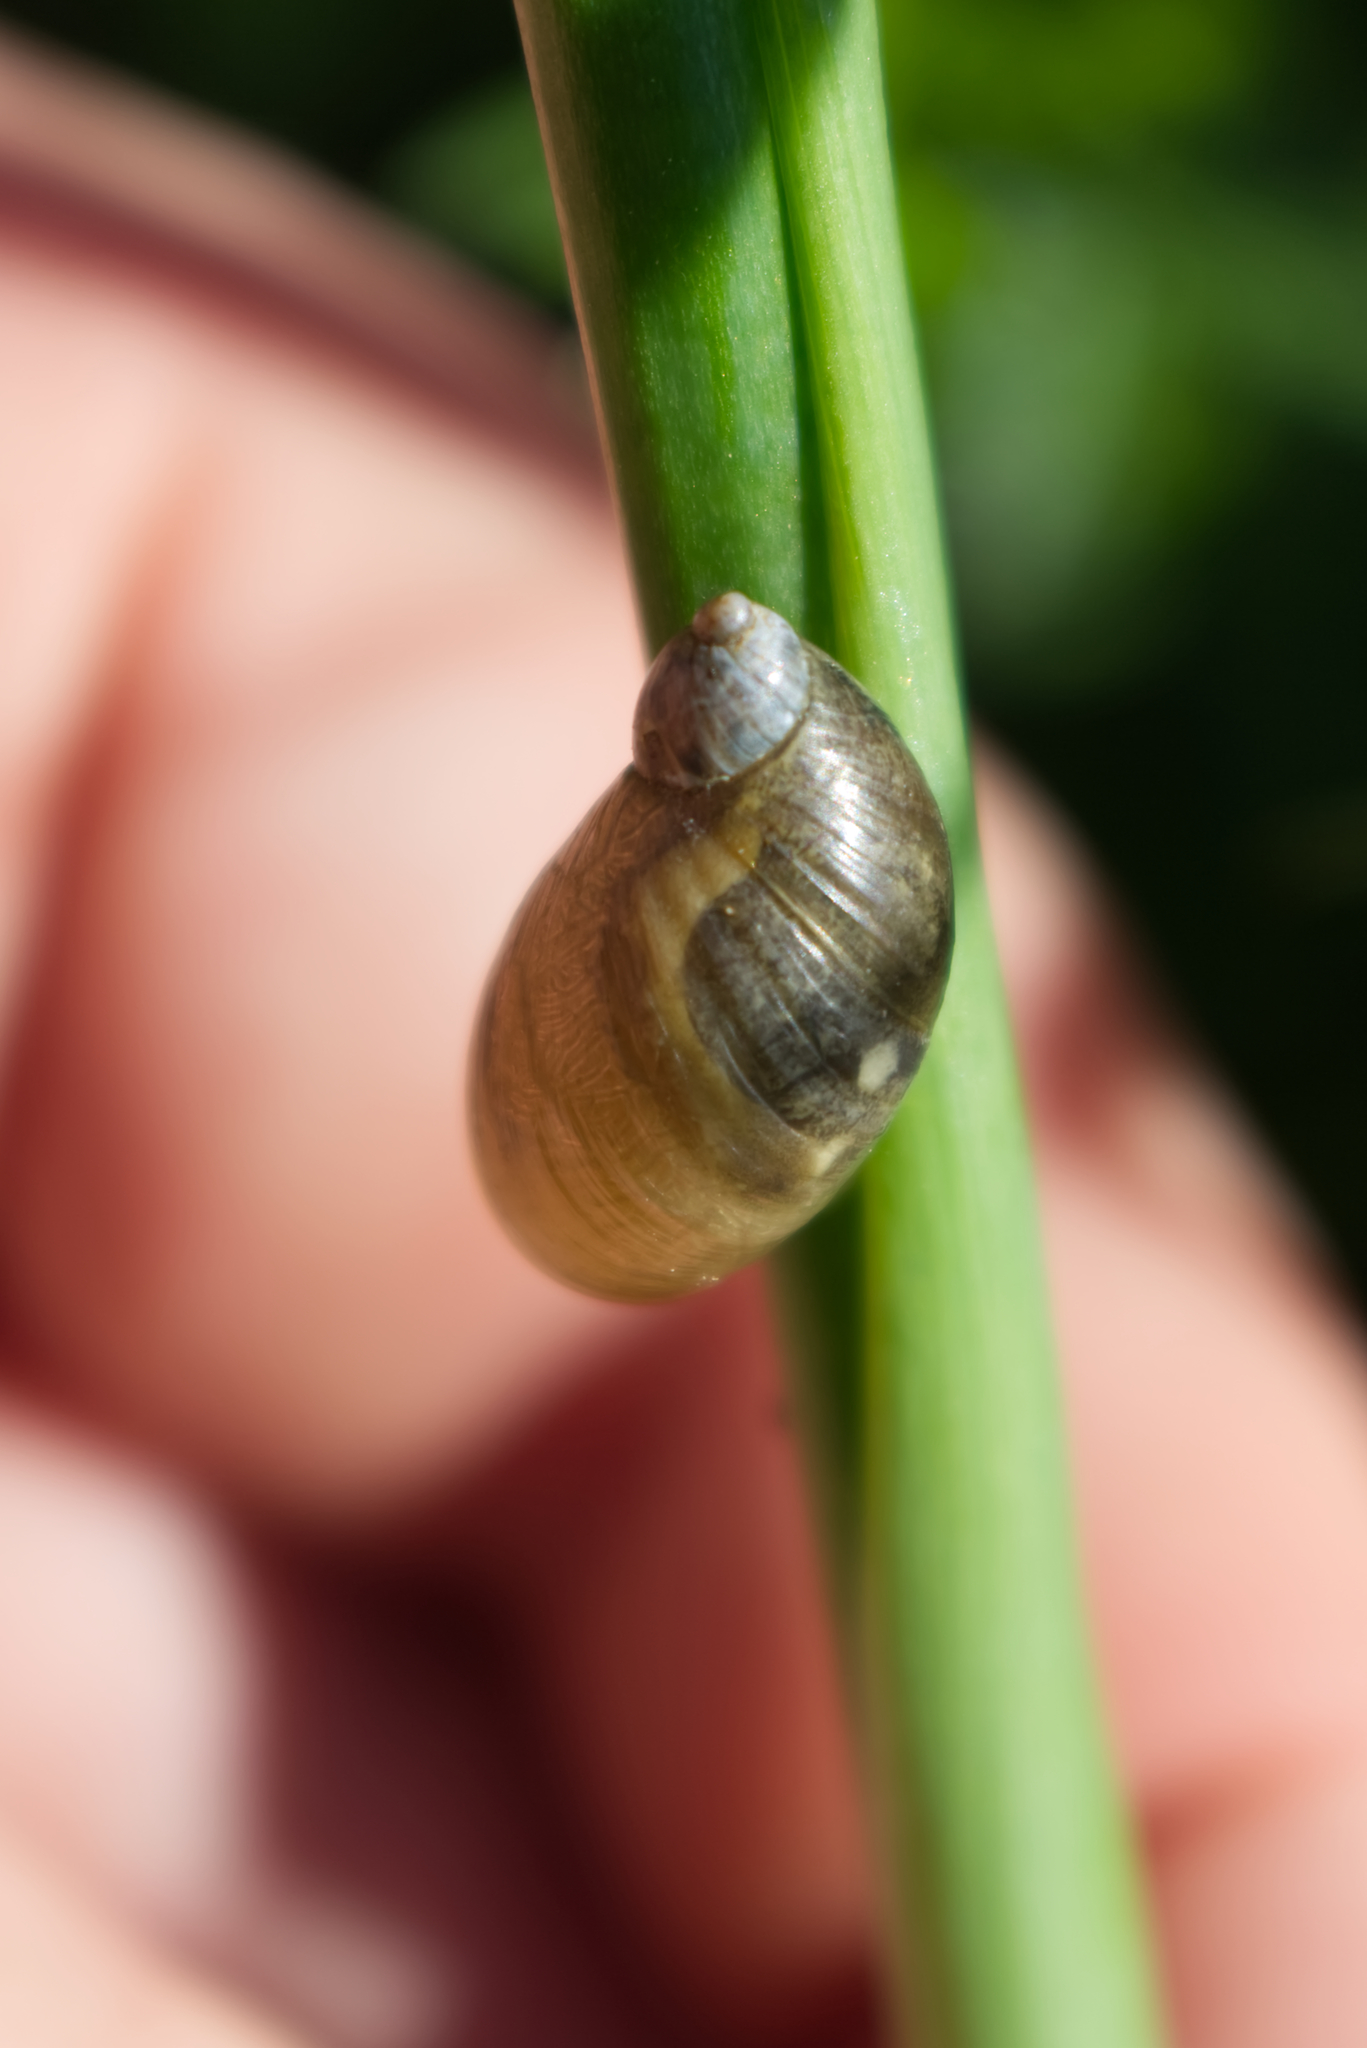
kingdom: Animalia
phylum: Mollusca
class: Gastropoda
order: Stylommatophora
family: Succineidae
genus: Succinea
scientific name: Succinea putris
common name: European ambersnail
